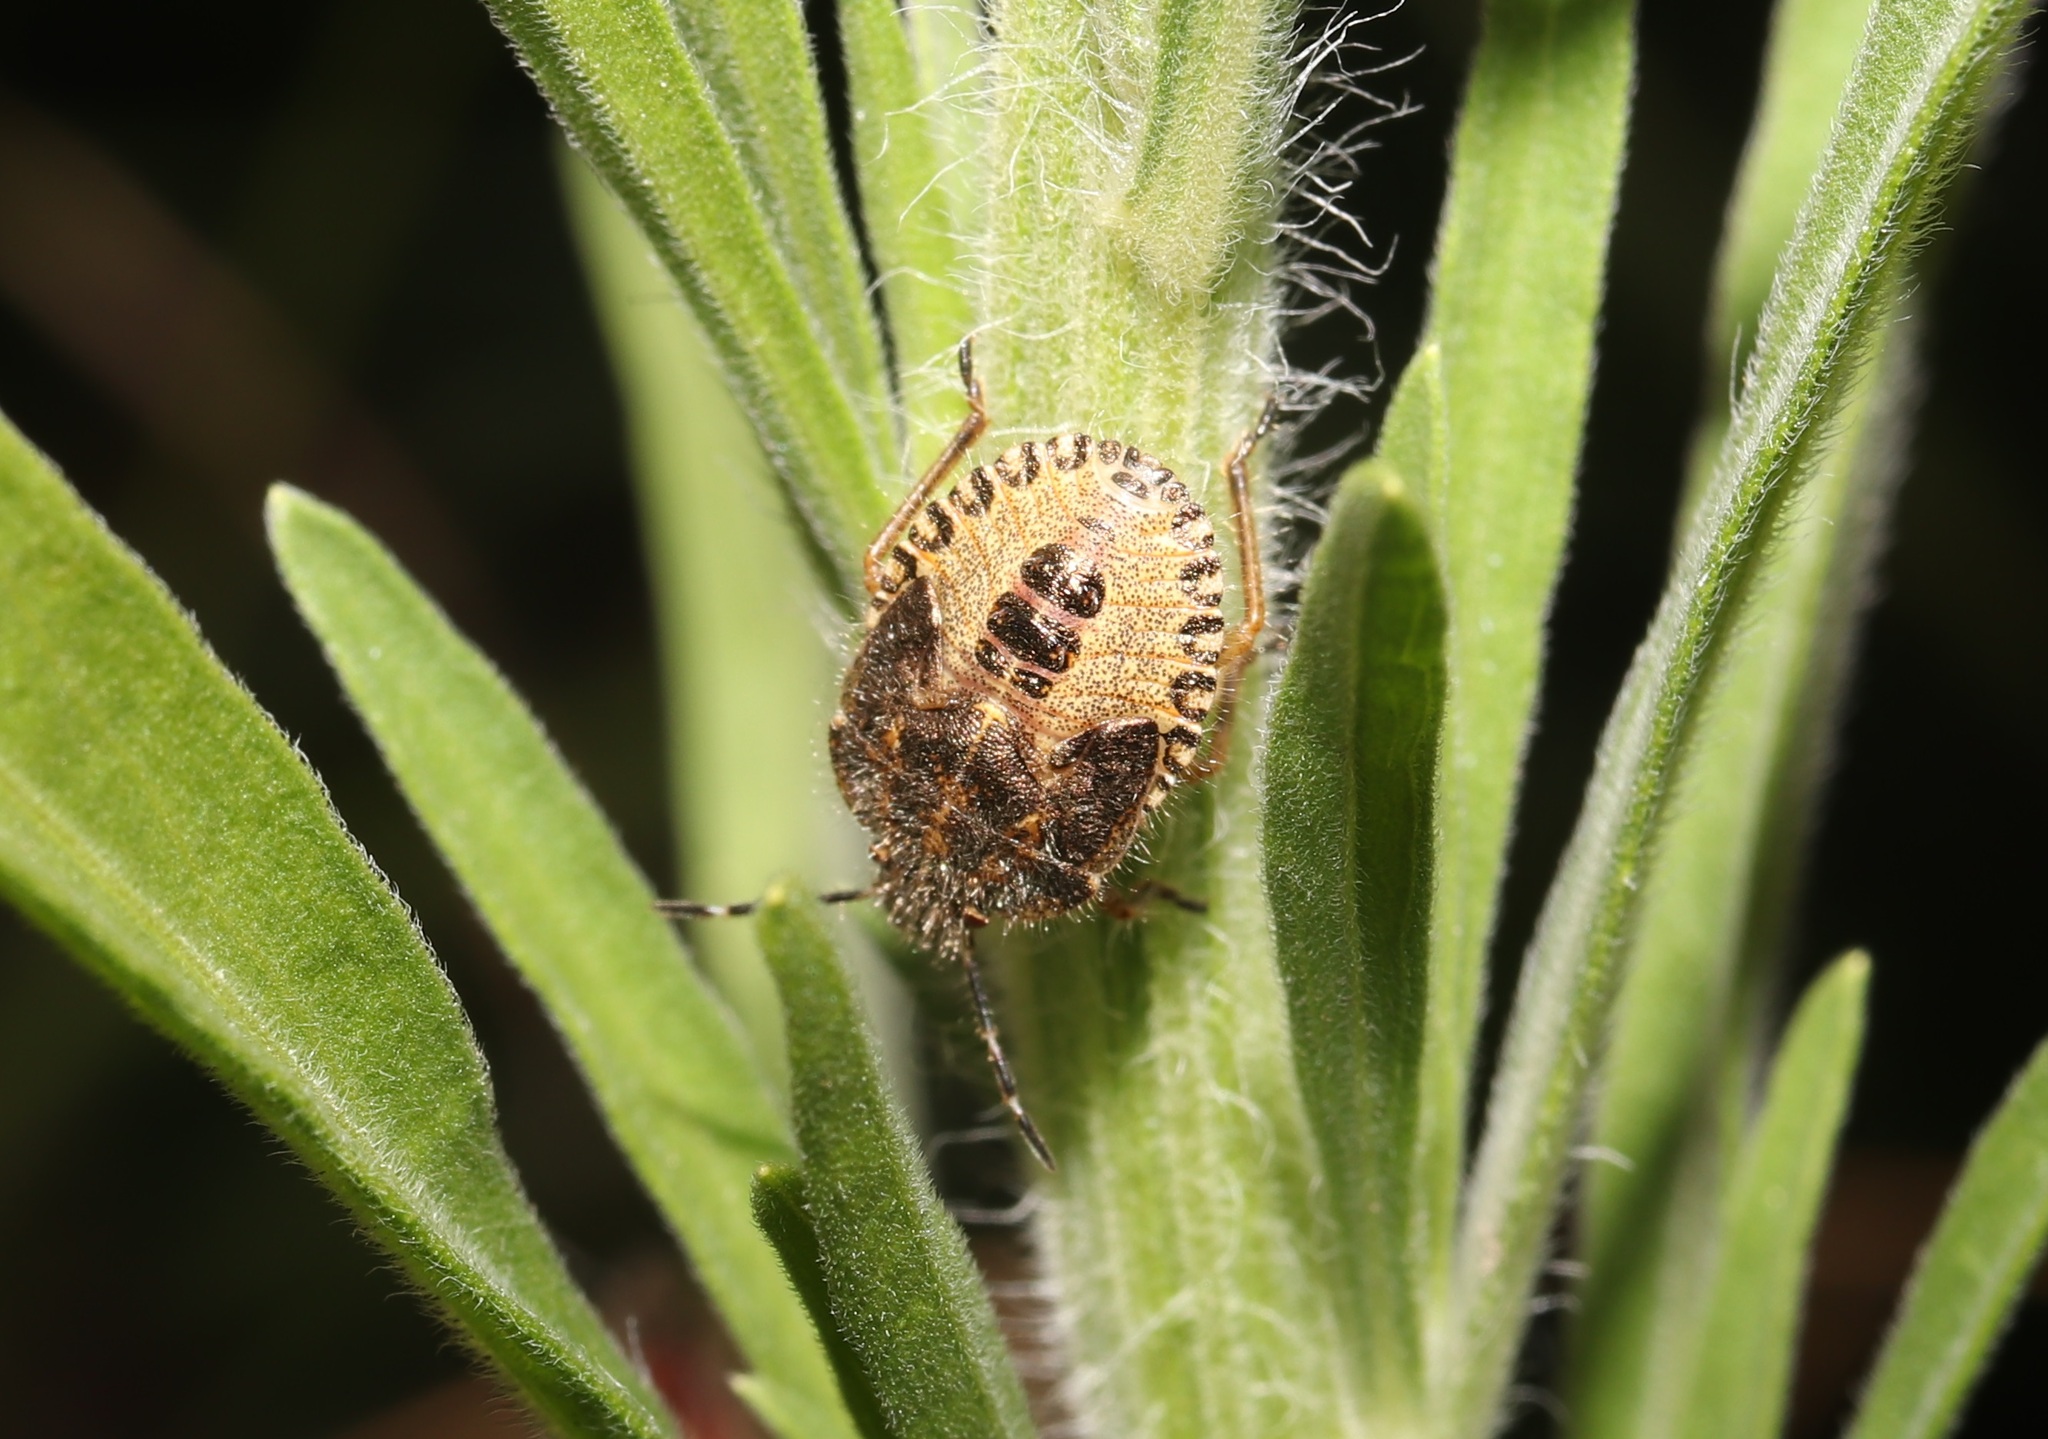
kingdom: Animalia
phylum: Arthropoda
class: Insecta
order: Hemiptera
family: Pentatomidae
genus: Dolycoris
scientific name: Dolycoris baccarum
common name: Sloe bug
